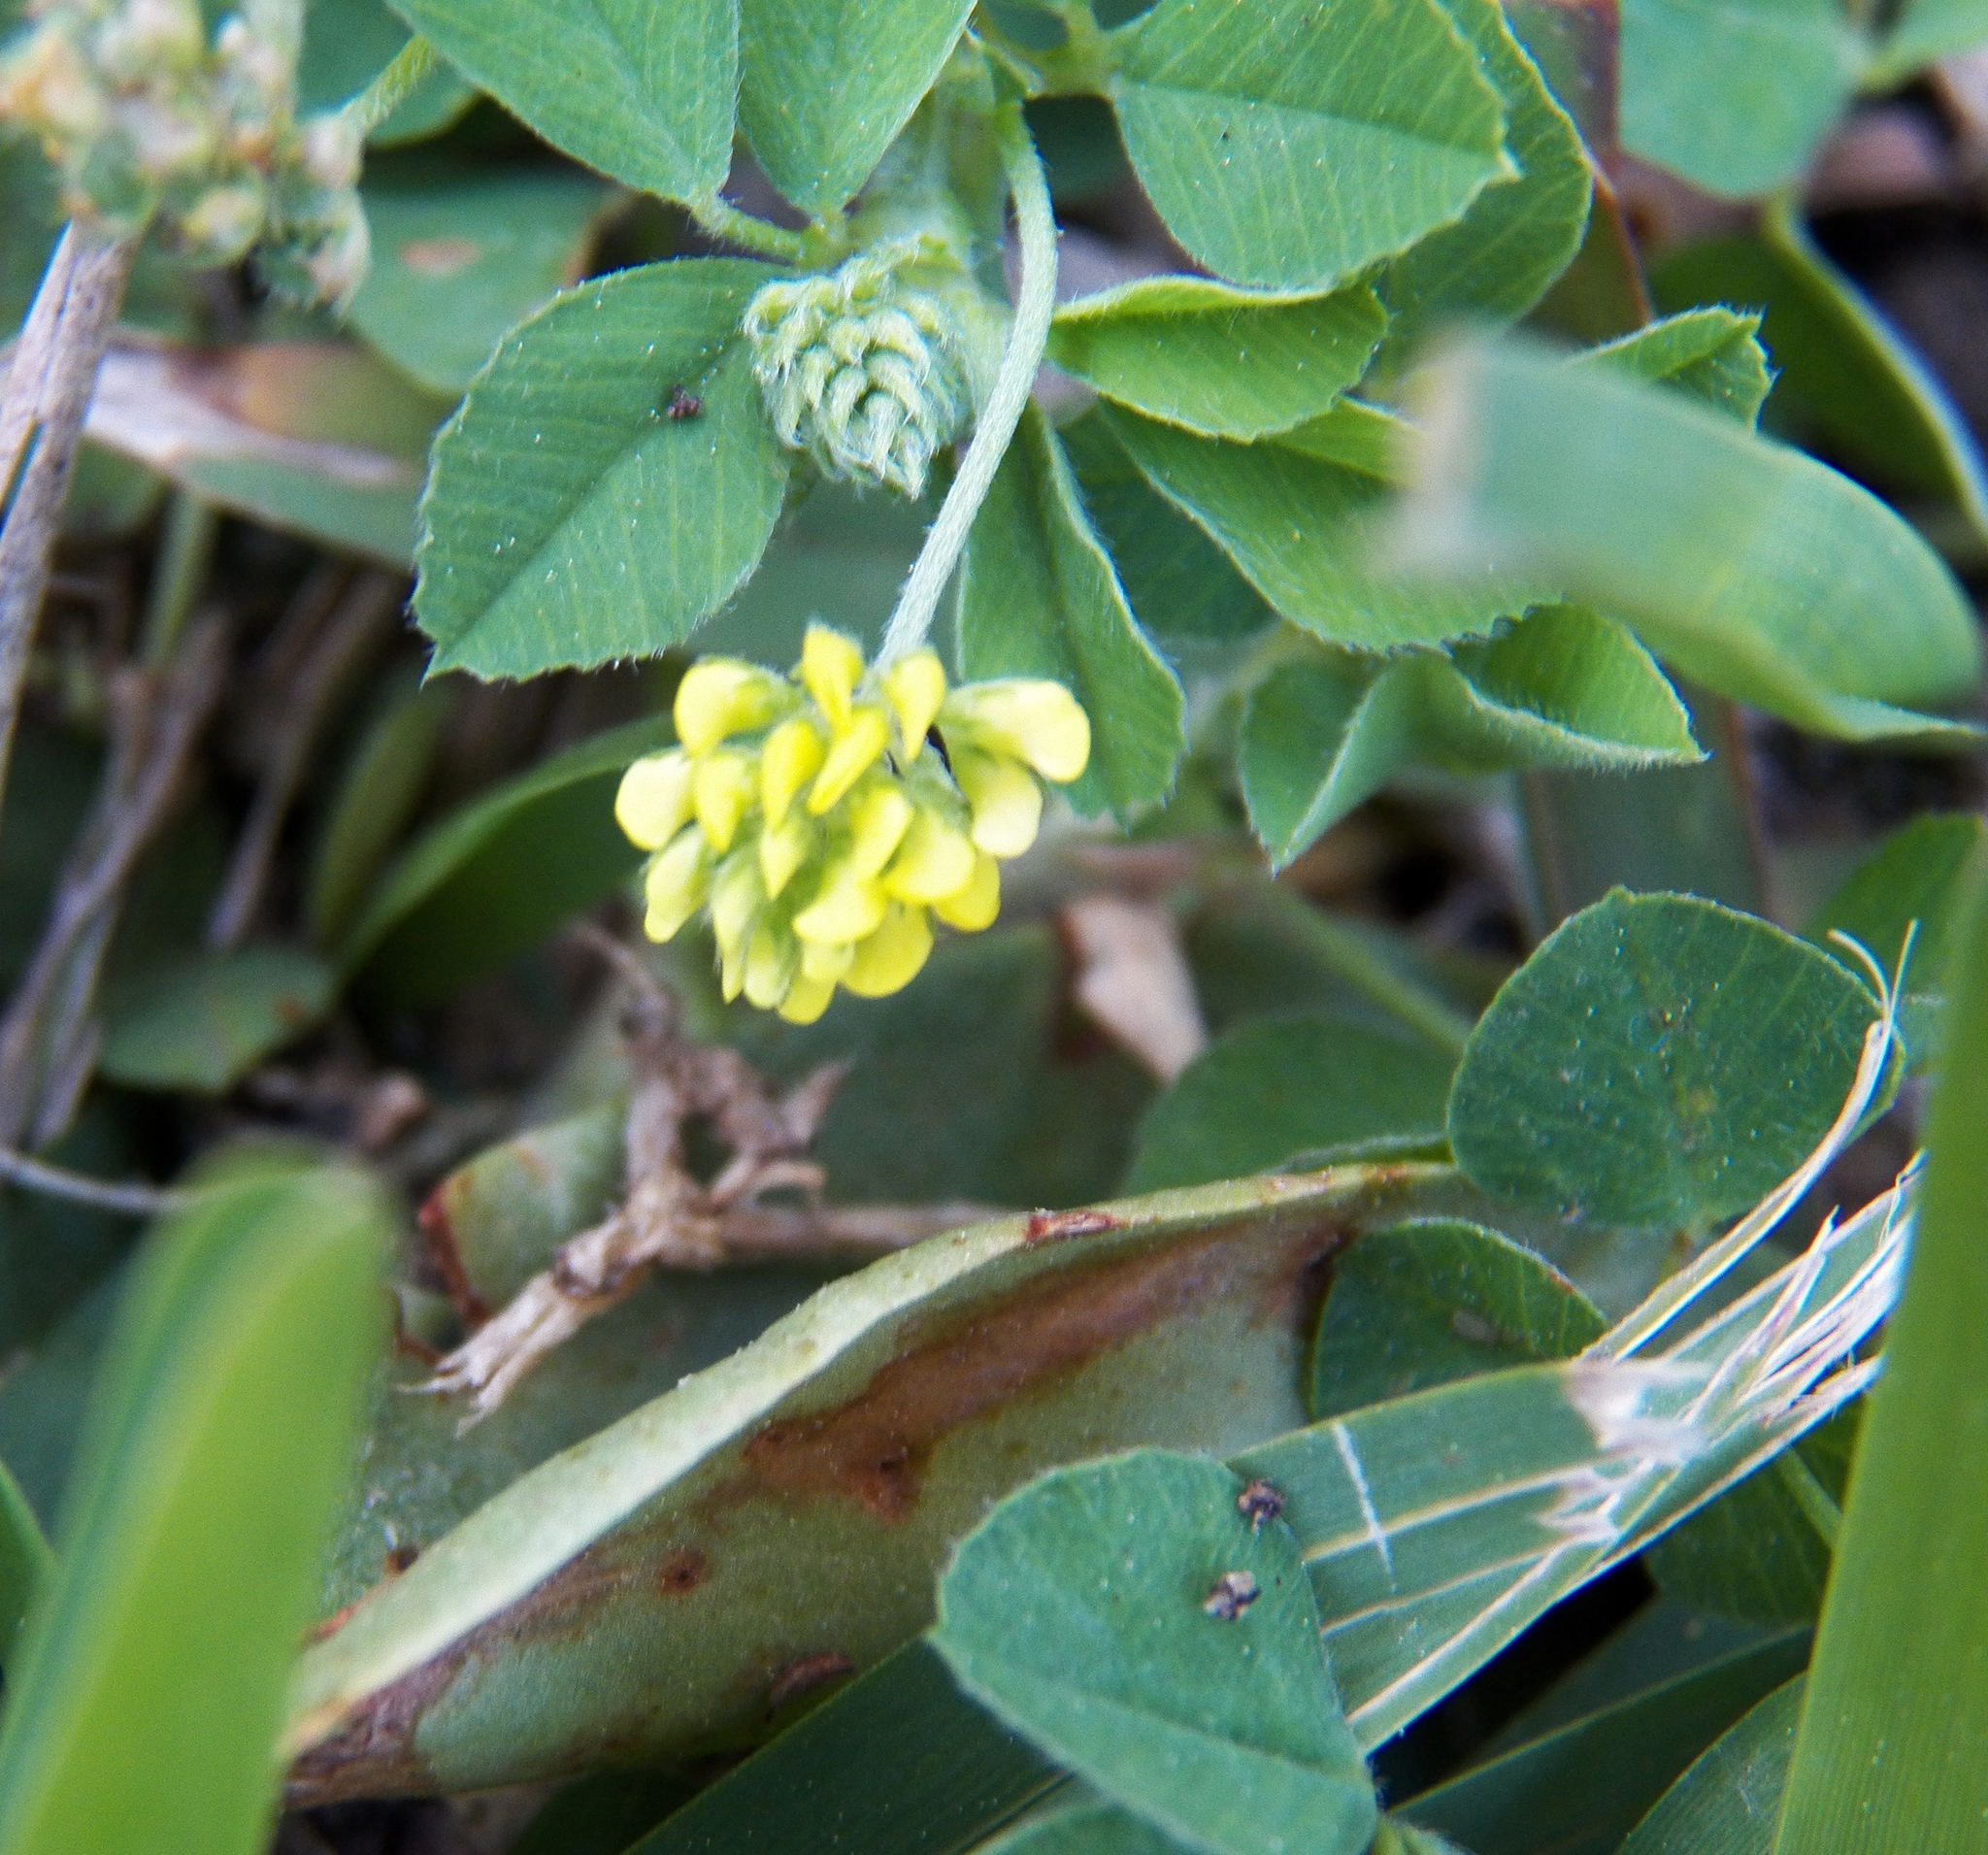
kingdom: Plantae
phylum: Tracheophyta
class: Magnoliopsida
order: Fabales
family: Fabaceae
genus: Medicago
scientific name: Medicago lupulina
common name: Black medick
